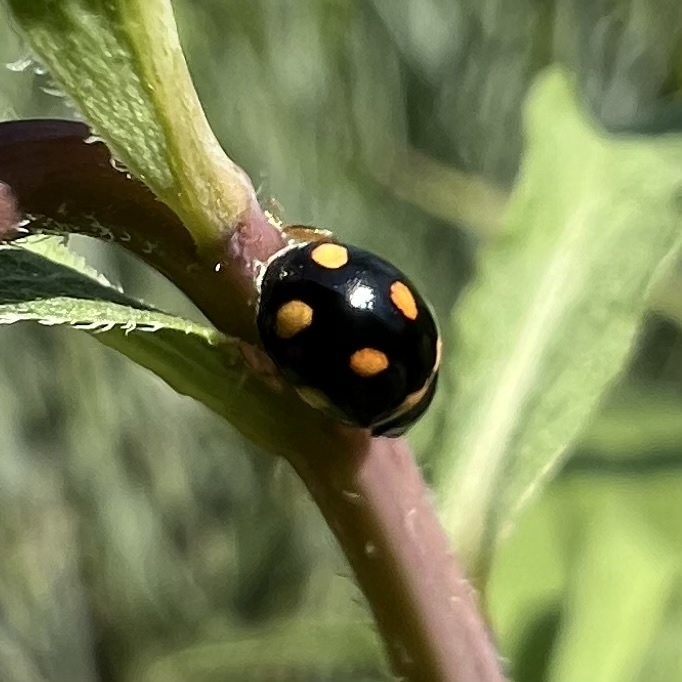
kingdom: Animalia
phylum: Arthropoda
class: Insecta
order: Coleoptera
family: Coccinellidae
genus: Brachiacantha
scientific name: Brachiacantha ursina
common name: Ursine spurleg lady beetle
